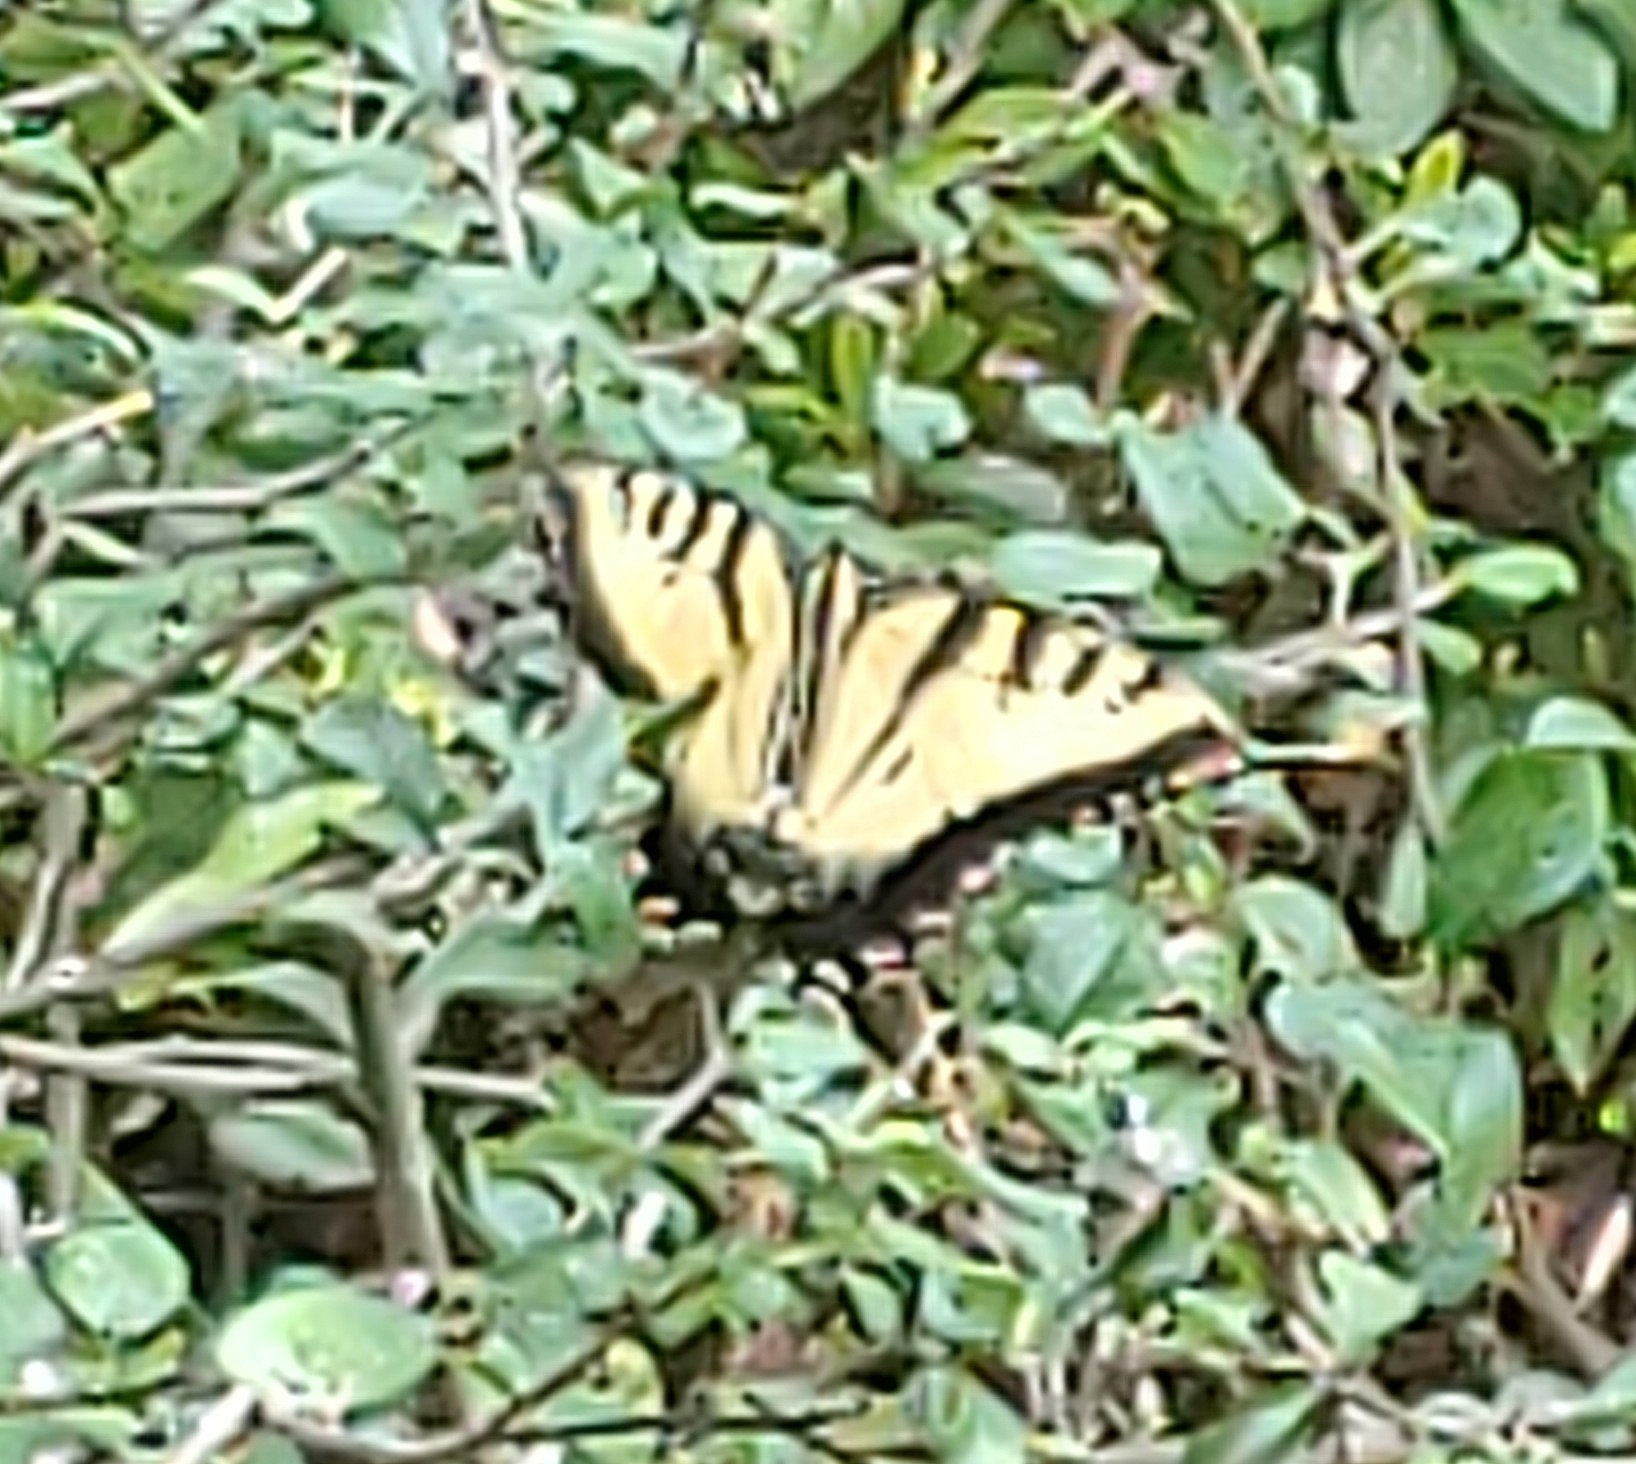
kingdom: Animalia
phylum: Arthropoda
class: Insecta
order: Lepidoptera
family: Papilionidae
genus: Papilio
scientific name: Papilio glaucus
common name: Tiger swallowtail
